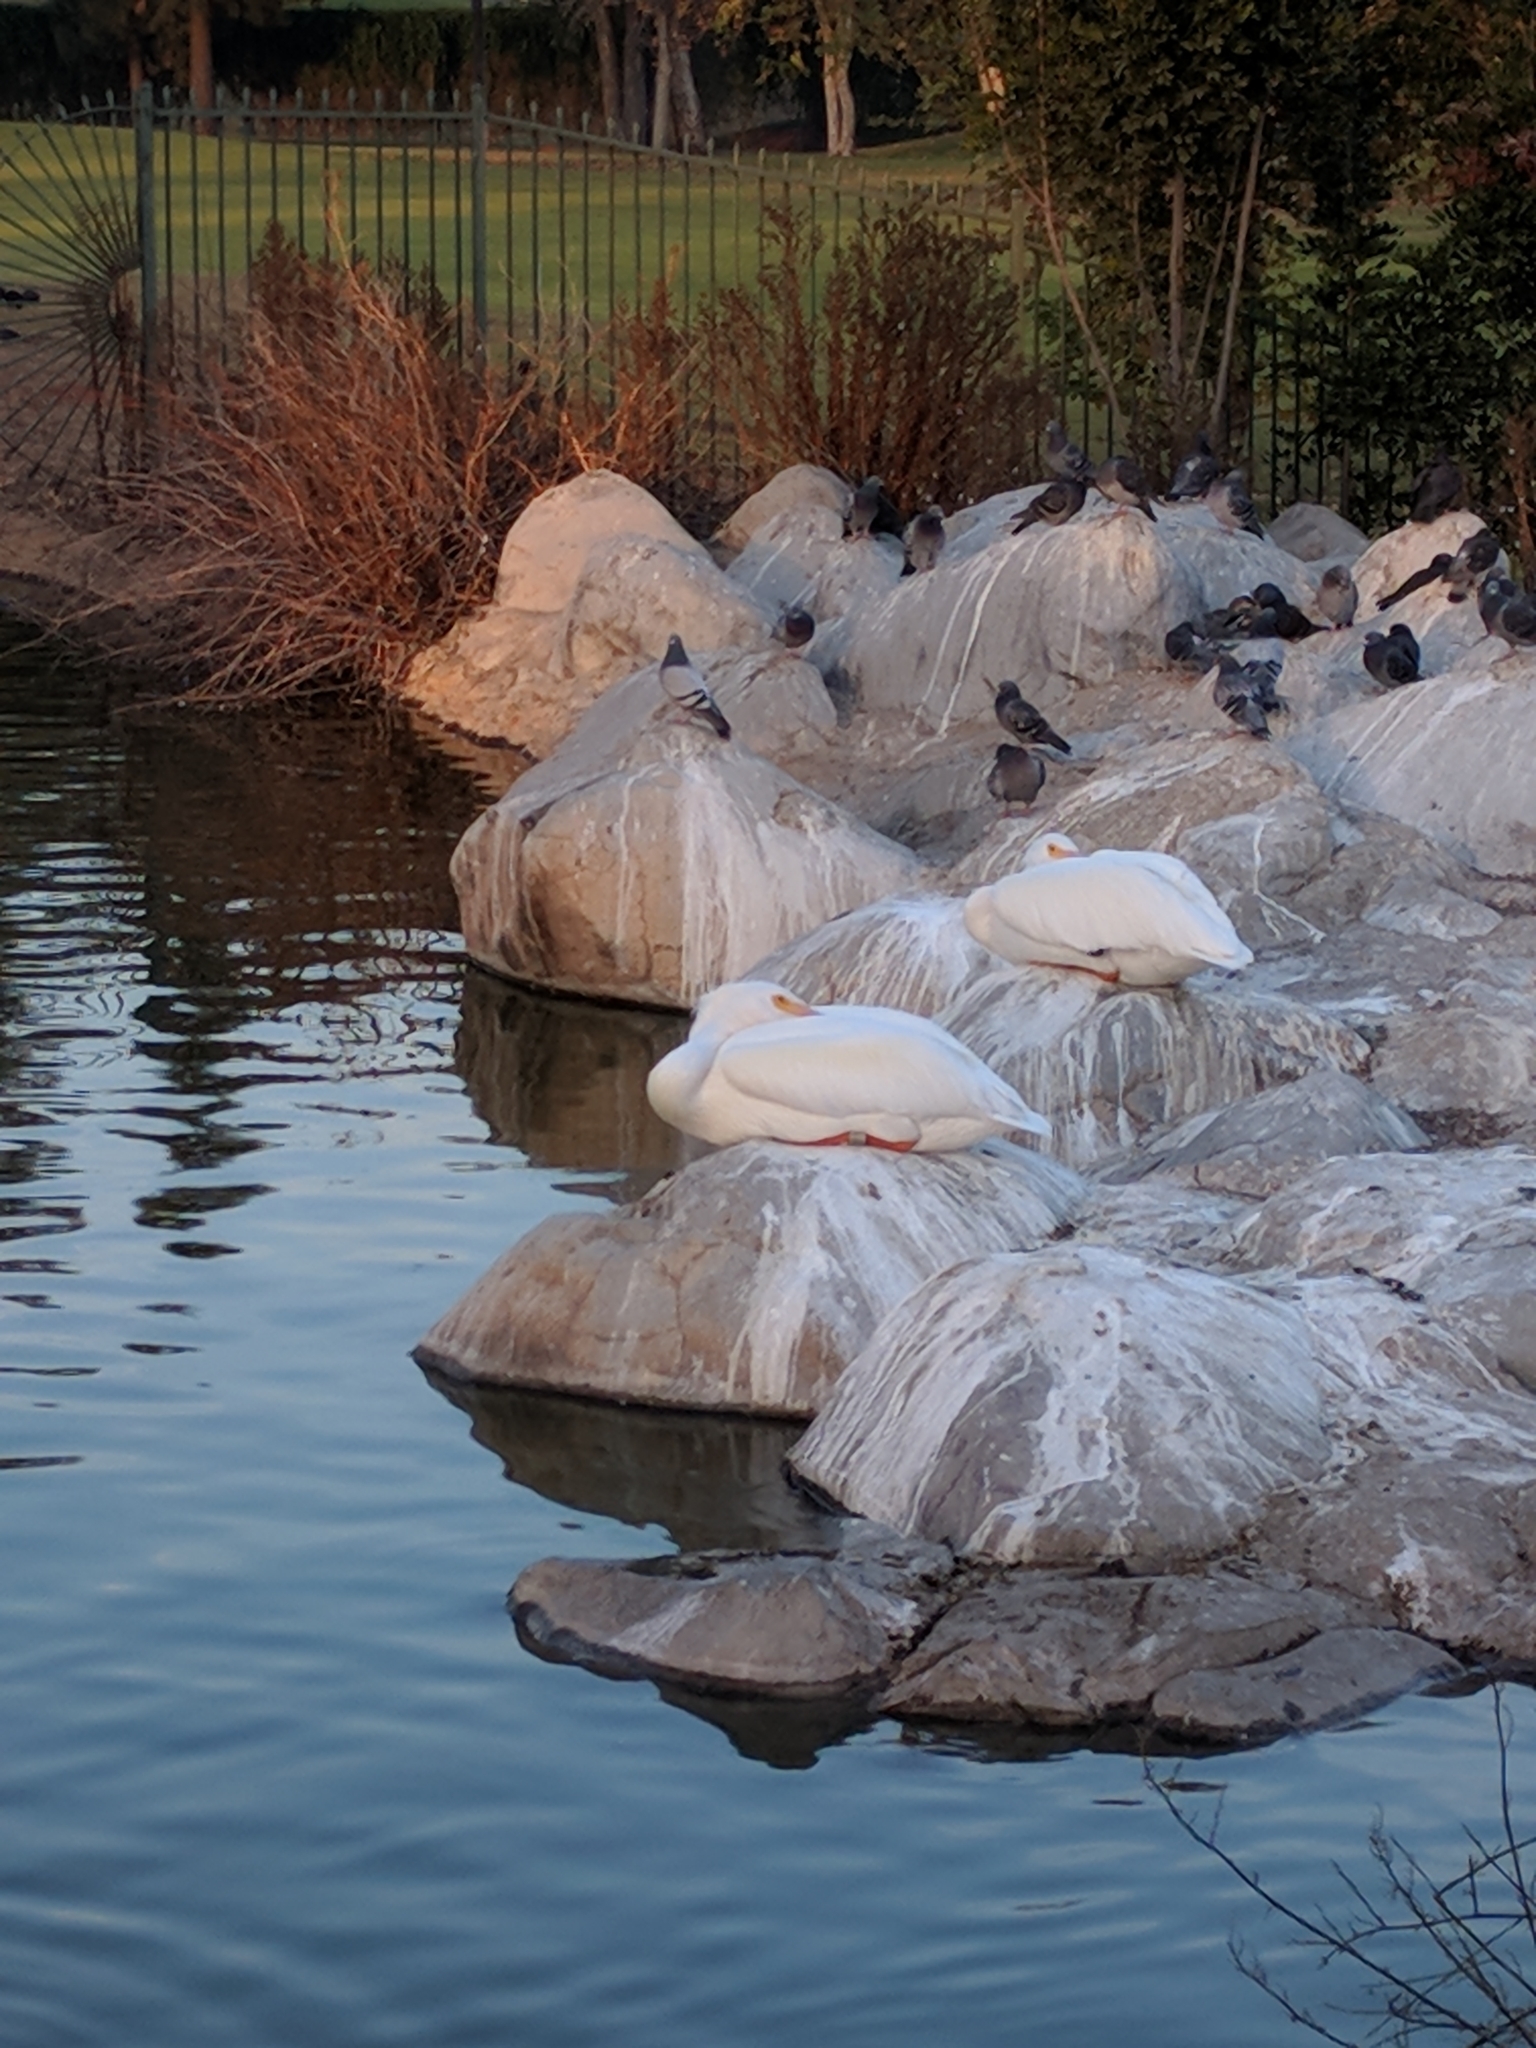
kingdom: Animalia
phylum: Chordata
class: Aves
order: Pelecaniformes
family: Pelecanidae
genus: Pelecanus
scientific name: Pelecanus erythrorhynchos
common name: American white pelican
